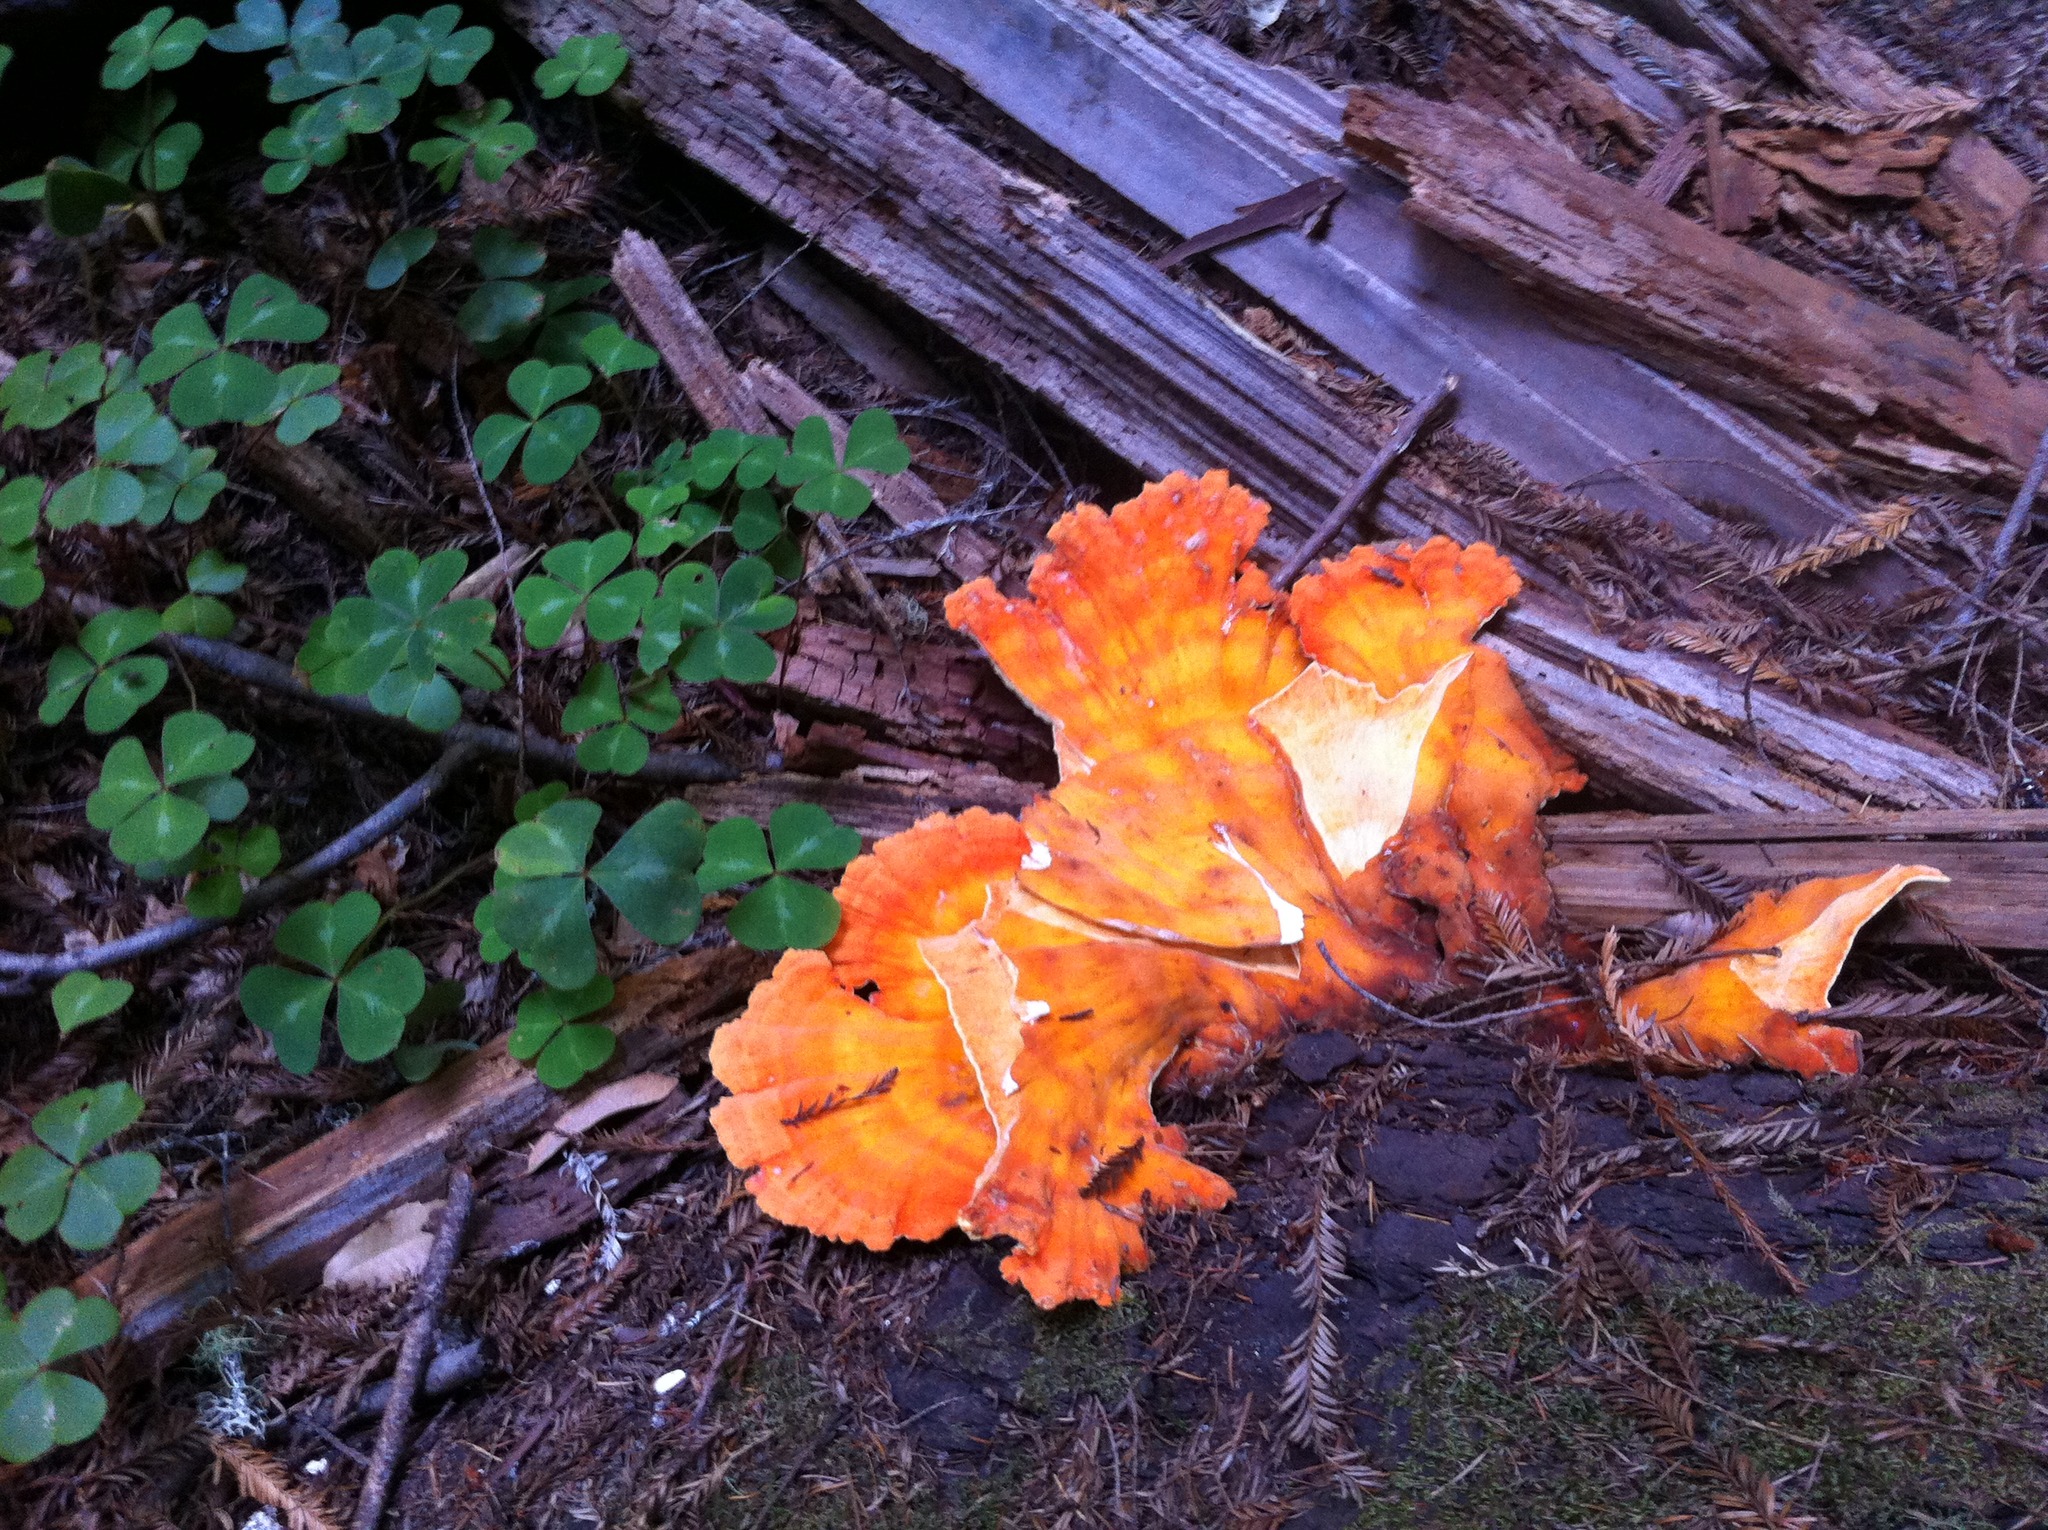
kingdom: Fungi
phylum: Basidiomycota
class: Agaricomycetes
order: Polyporales
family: Laetiporaceae
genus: Laetiporus
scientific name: Laetiporus gilbertsonii
